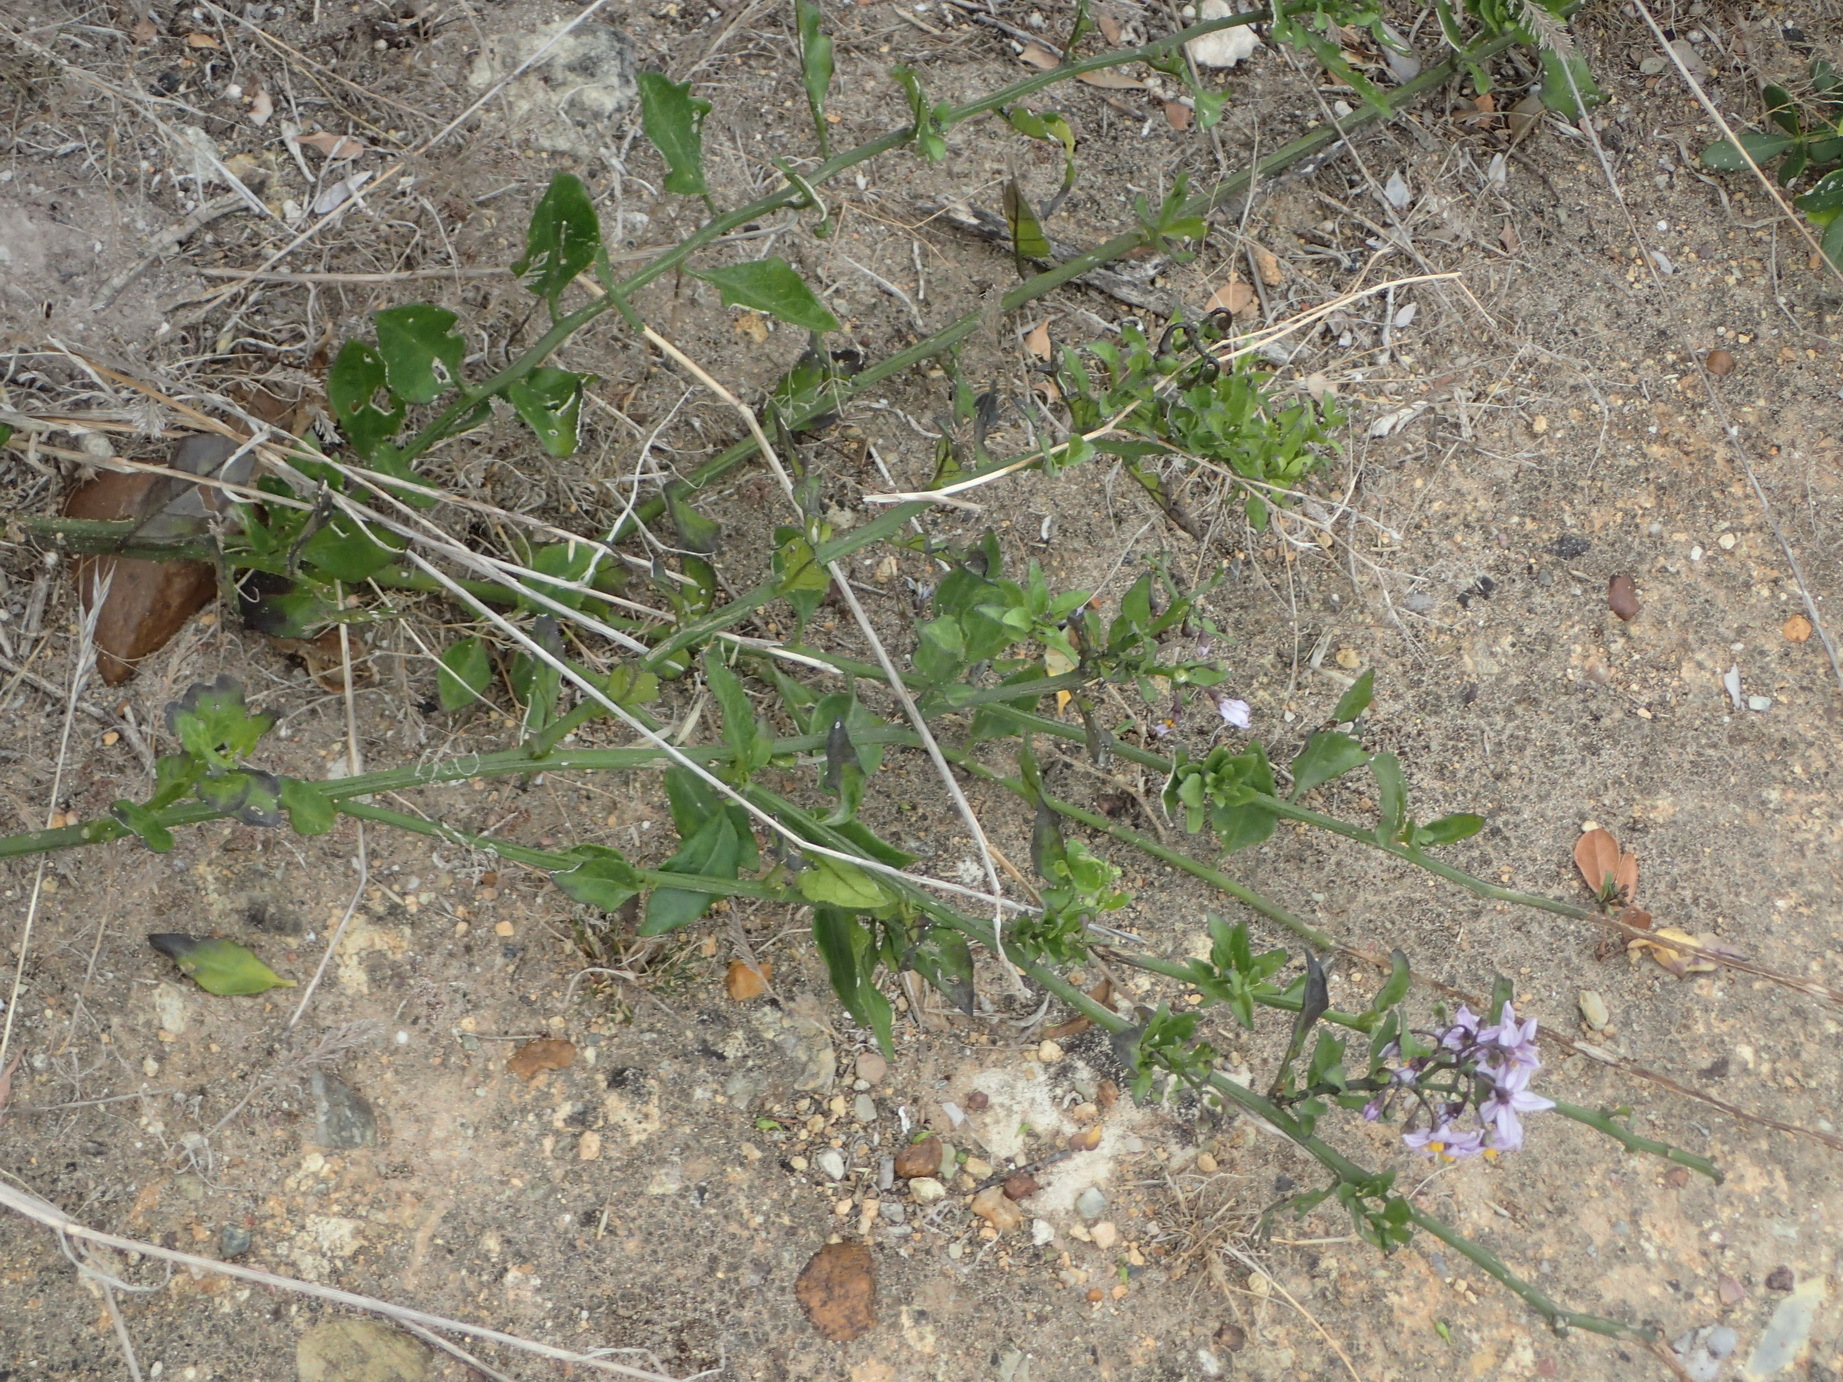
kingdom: Plantae
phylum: Tracheophyta
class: Magnoliopsida
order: Solanales
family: Solanaceae
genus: Solanum
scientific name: Solanum africanum
